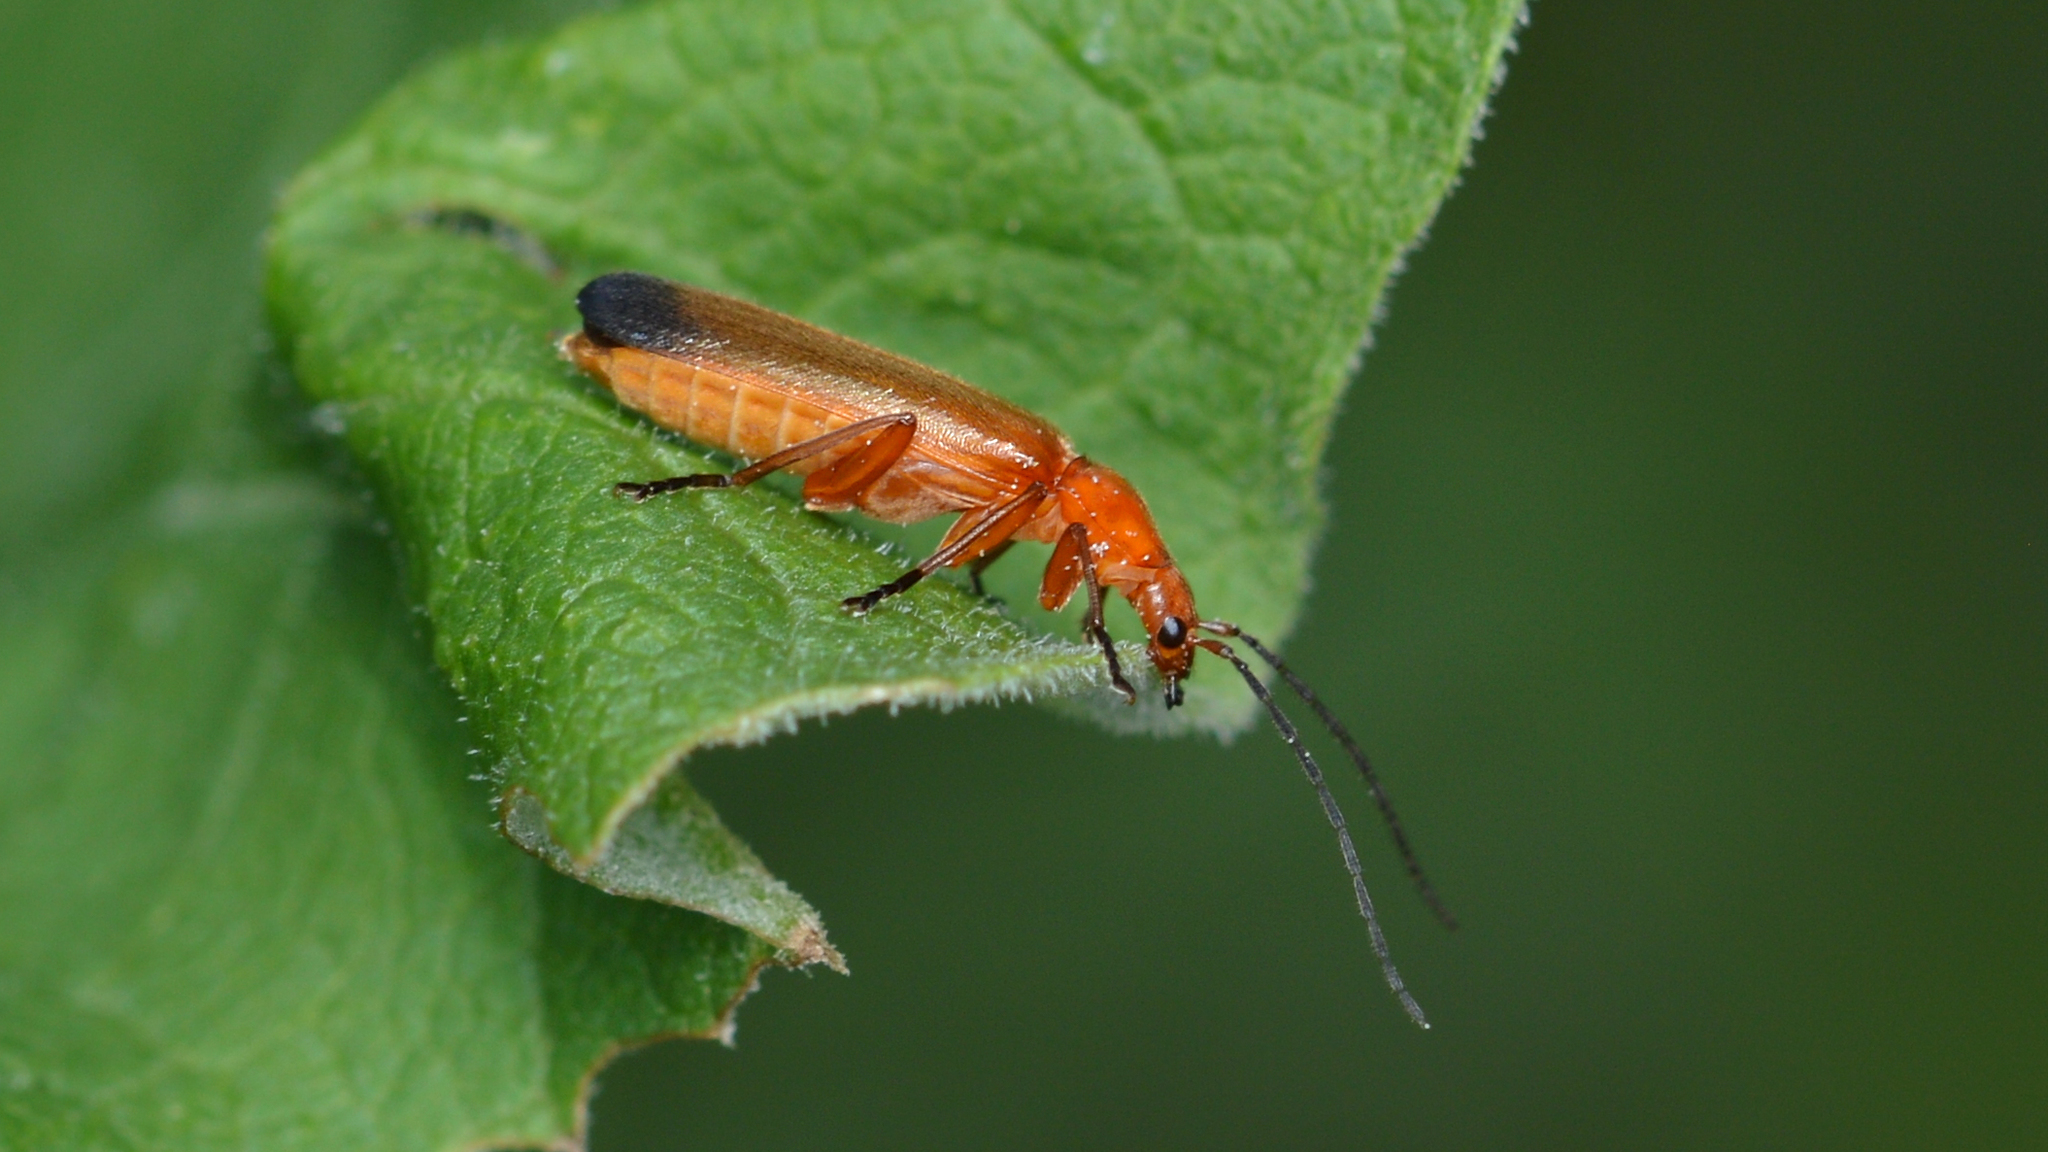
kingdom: Animalia
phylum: Arthropoda
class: Insecta
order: Coleoptera
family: Cantharidae
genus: Rhagonycha
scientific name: Rhagonycha fulva
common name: Common red soldier beetle
